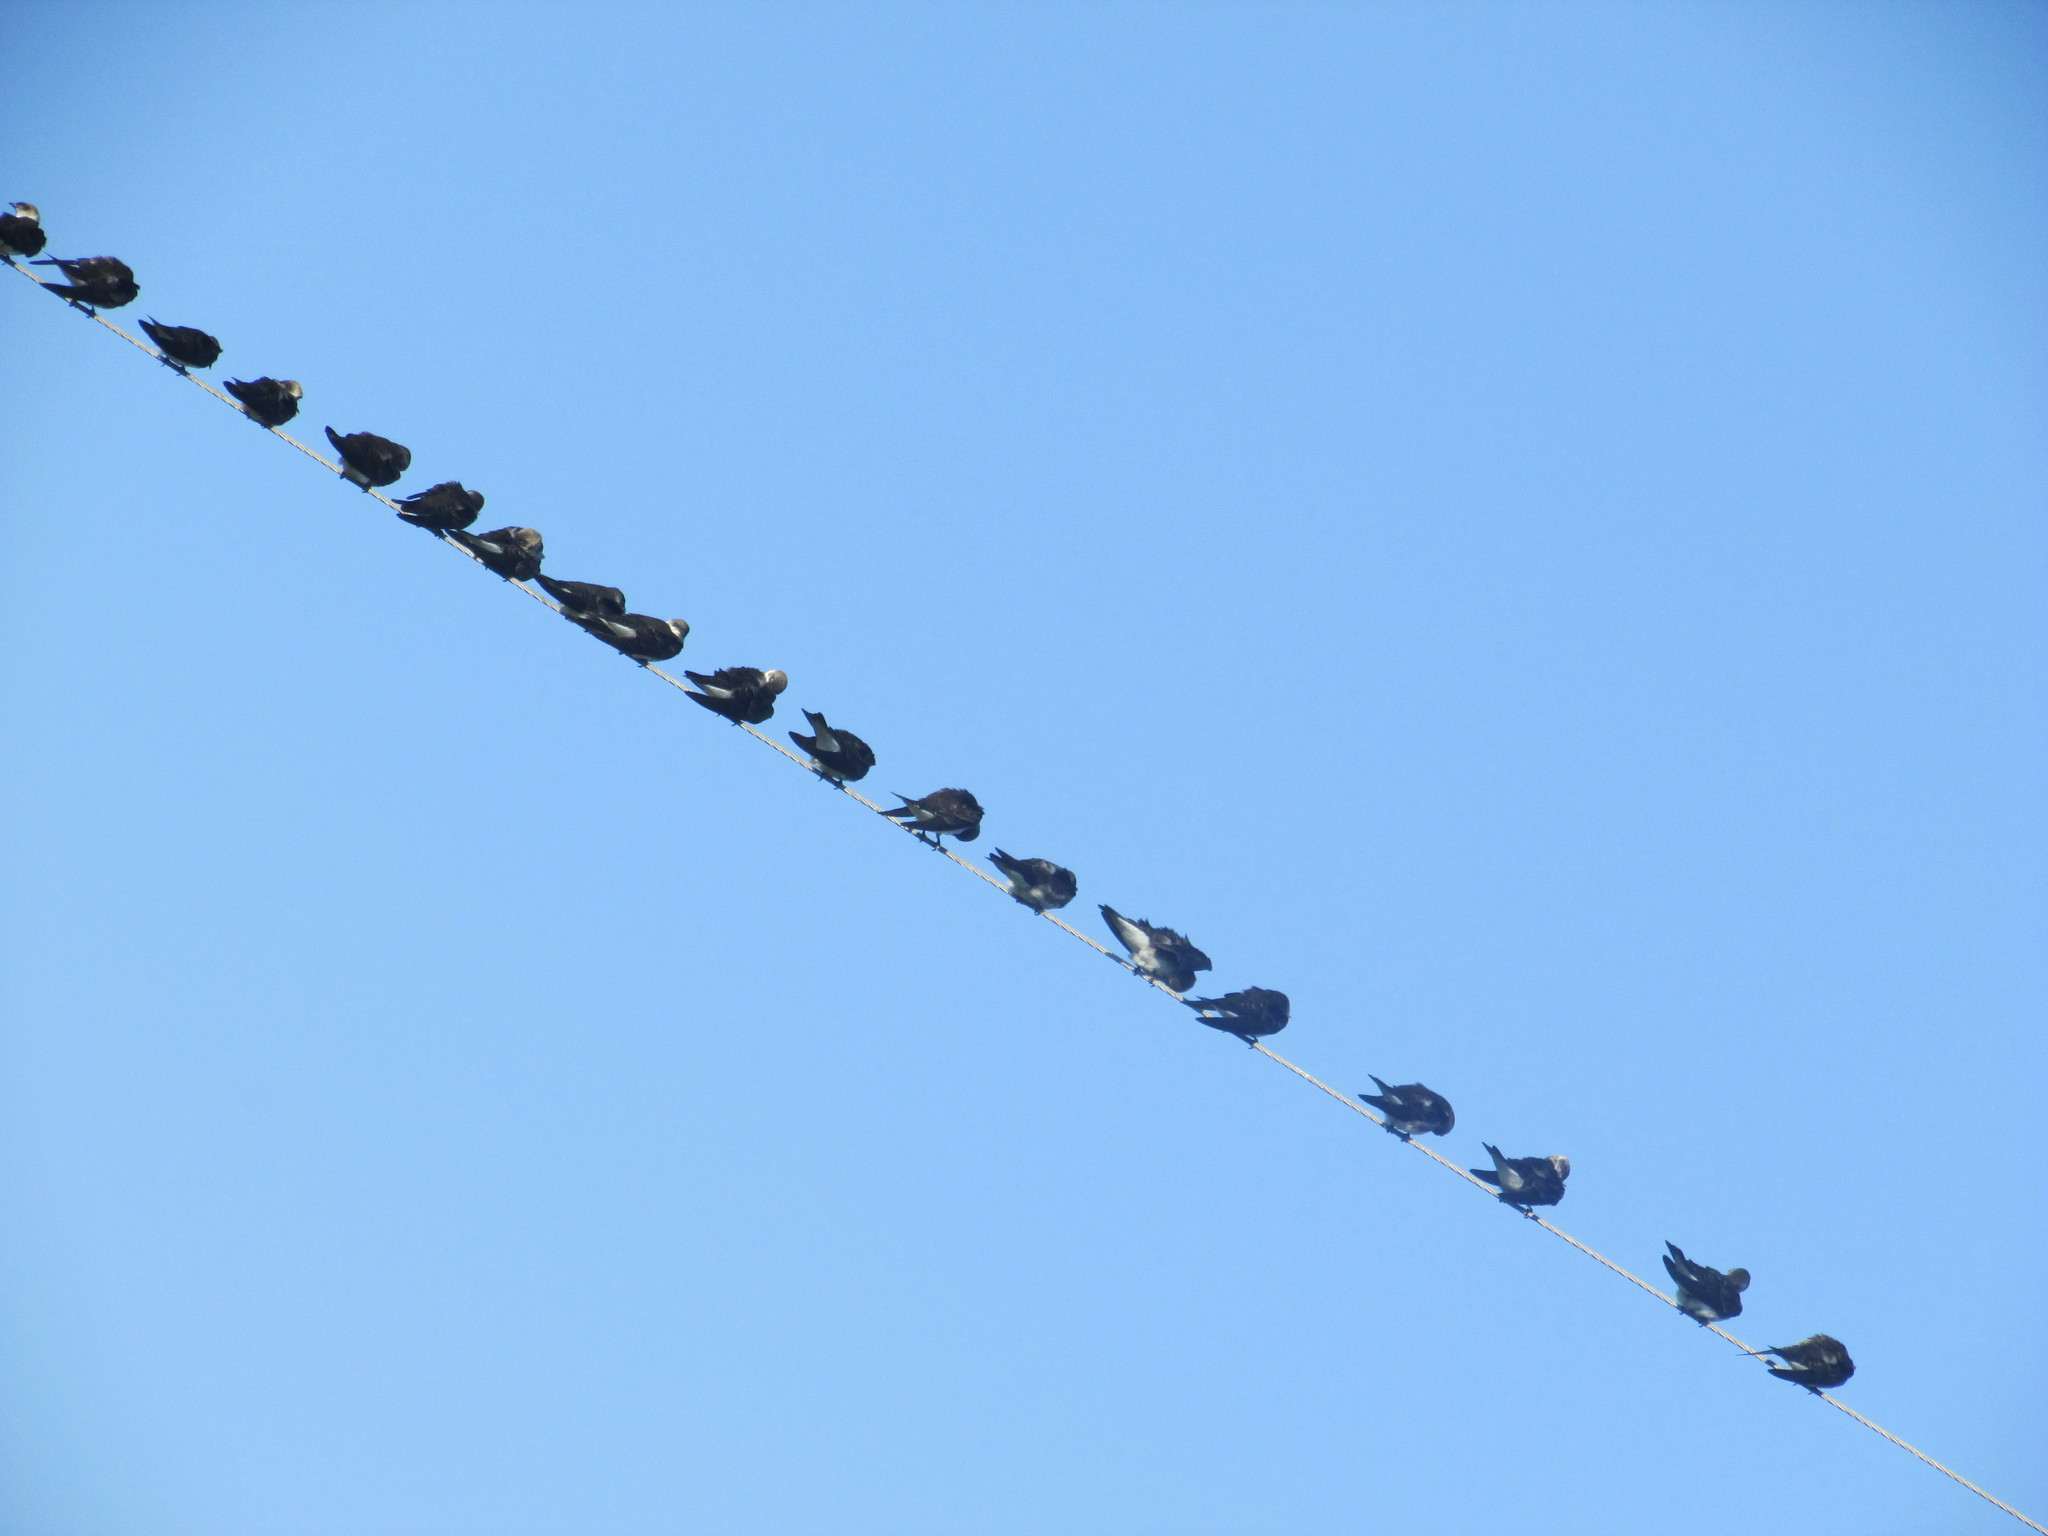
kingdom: Animalia
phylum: Chordata
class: Aves
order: Passeriformes
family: Hirundinidae
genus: Progne
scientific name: Progne tapera
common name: Brown-chested martin
